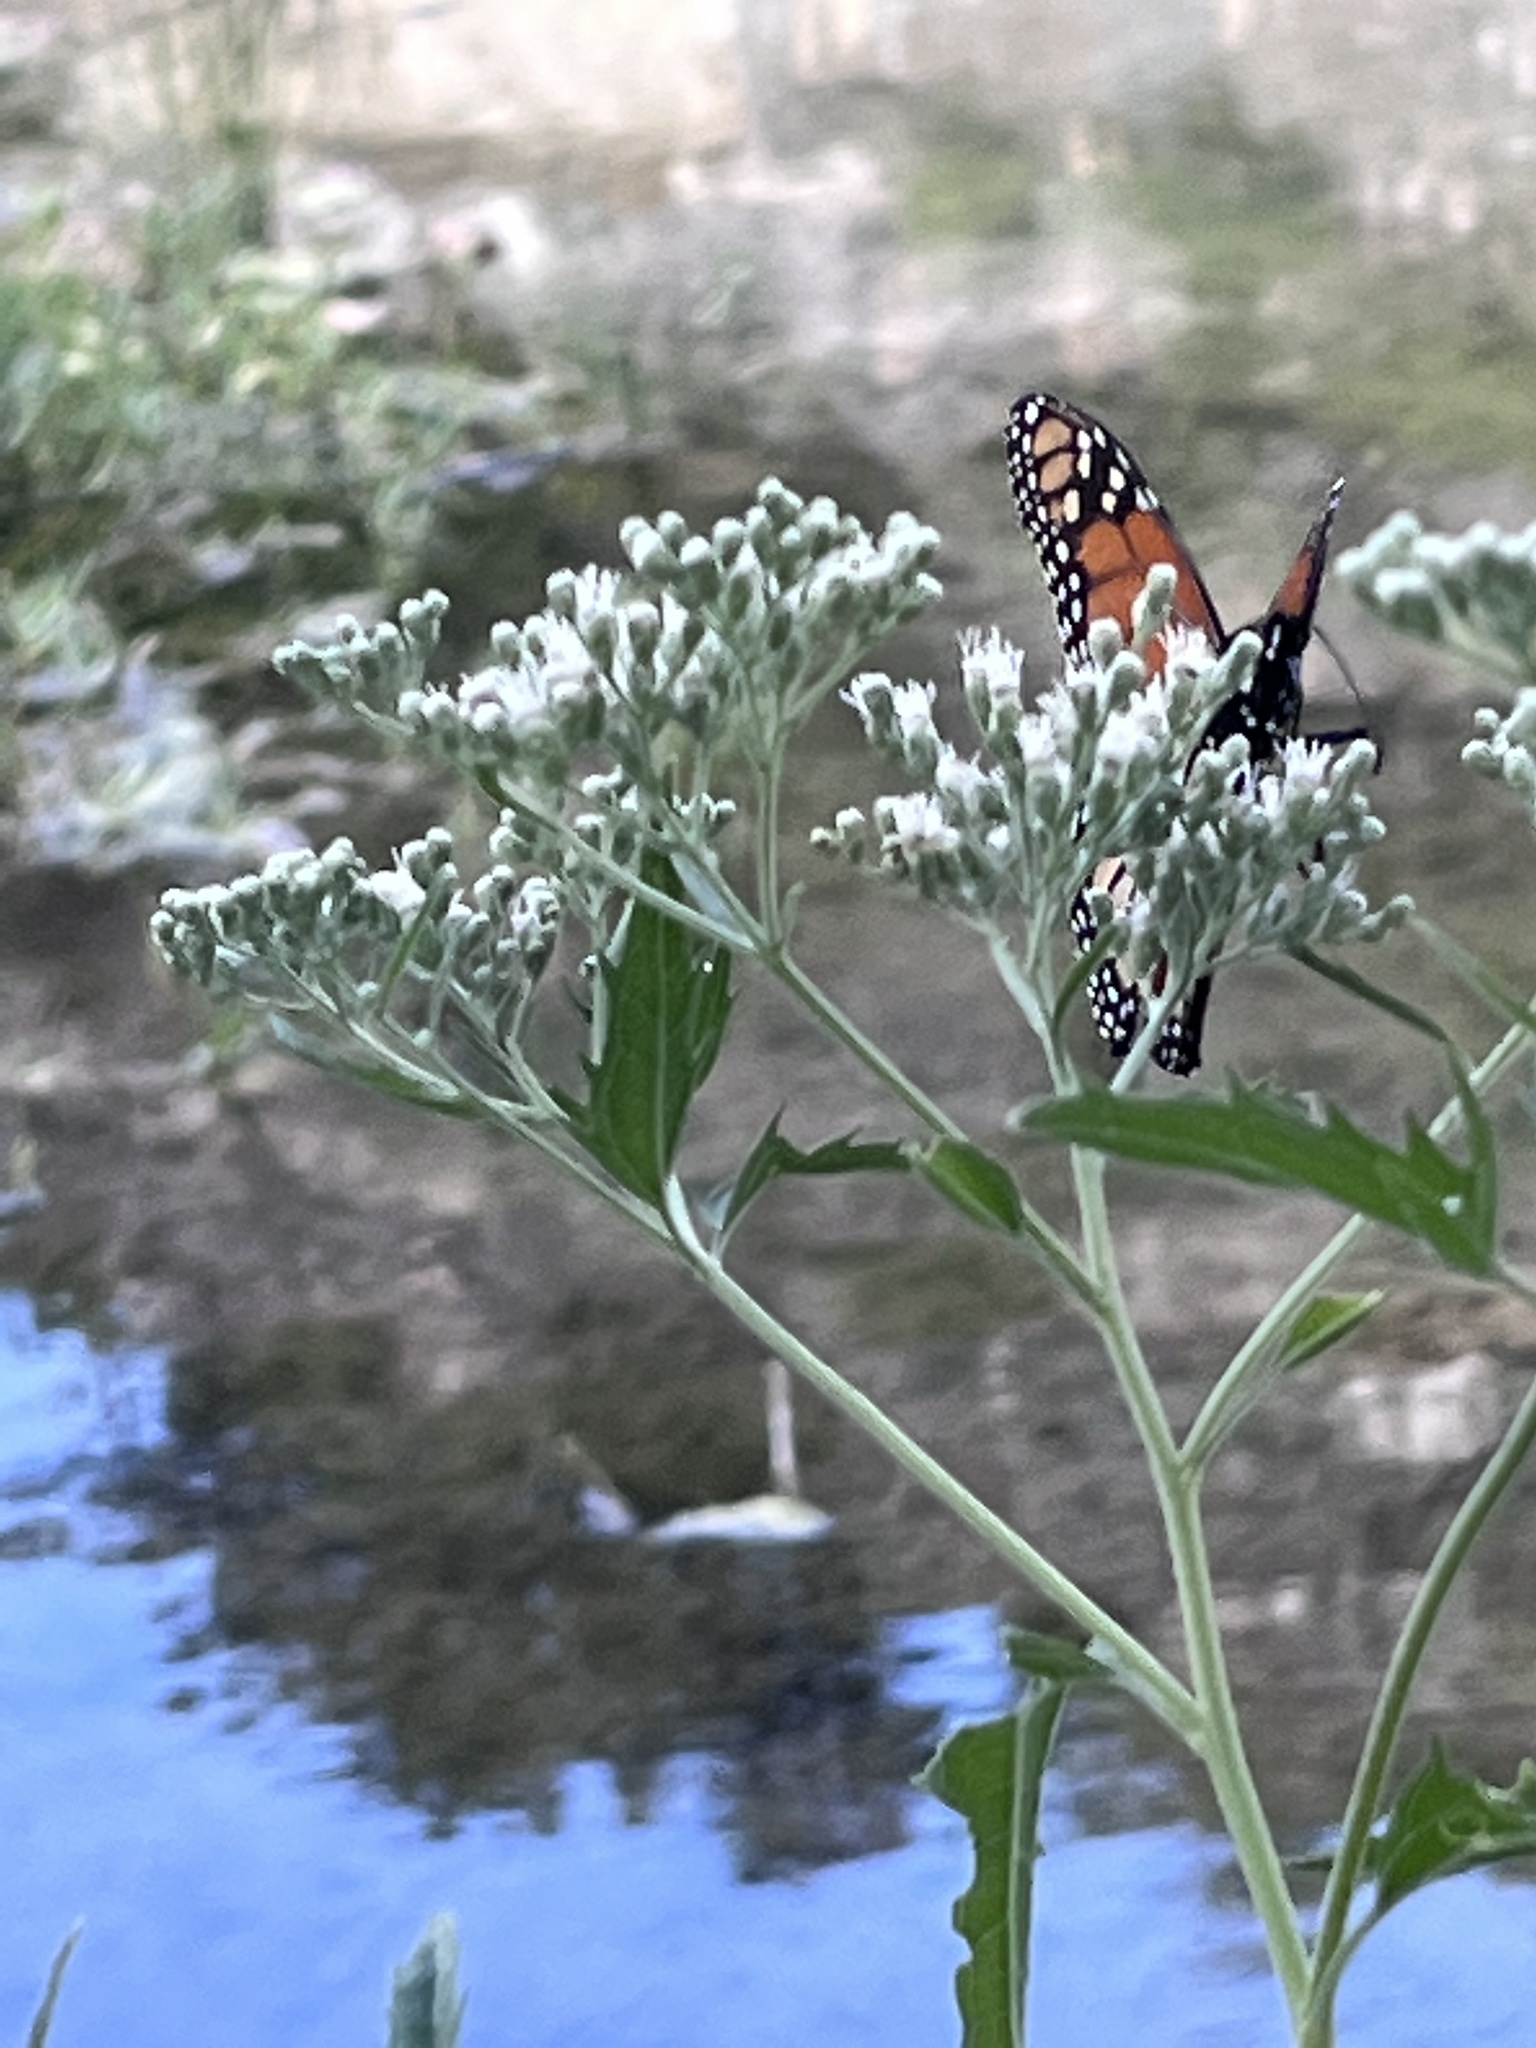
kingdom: Animalia
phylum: Arthropoda
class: Insecta
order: Lepidoptera
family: Nymphalidae
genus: Danaus
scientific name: Danaus plexippus
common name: Monarch
